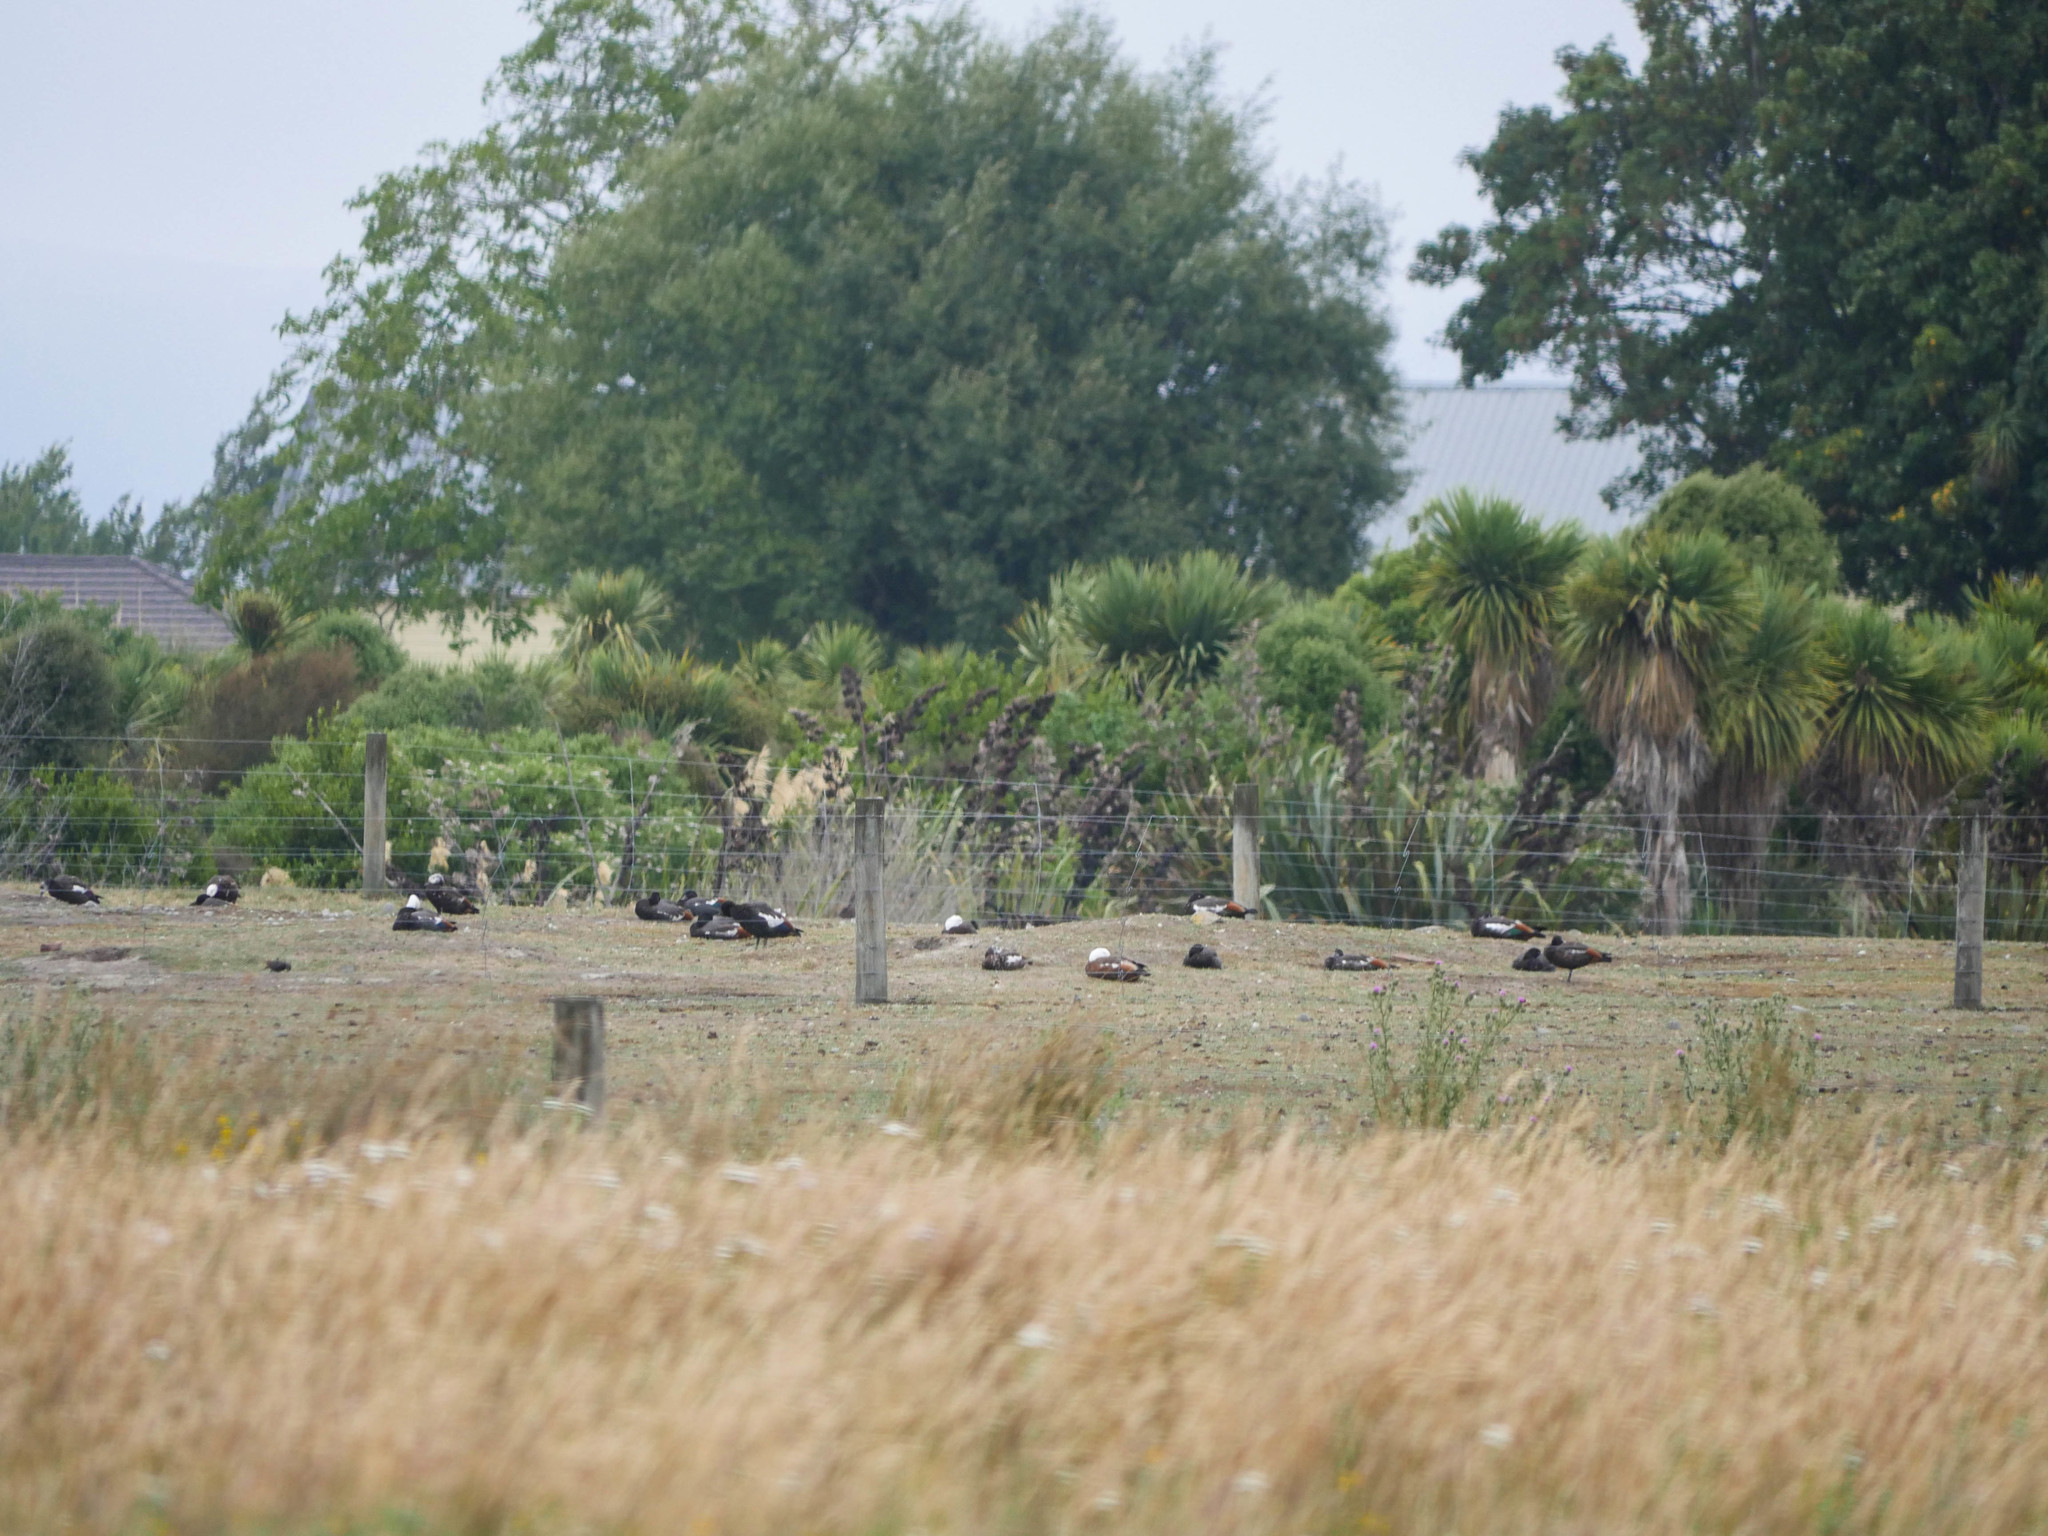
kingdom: Animalia
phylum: Chordata
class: Aves
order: Anseriformes
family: Anatidae
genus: Tadorna
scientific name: Tadorna variegata
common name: Paradise shelduck
